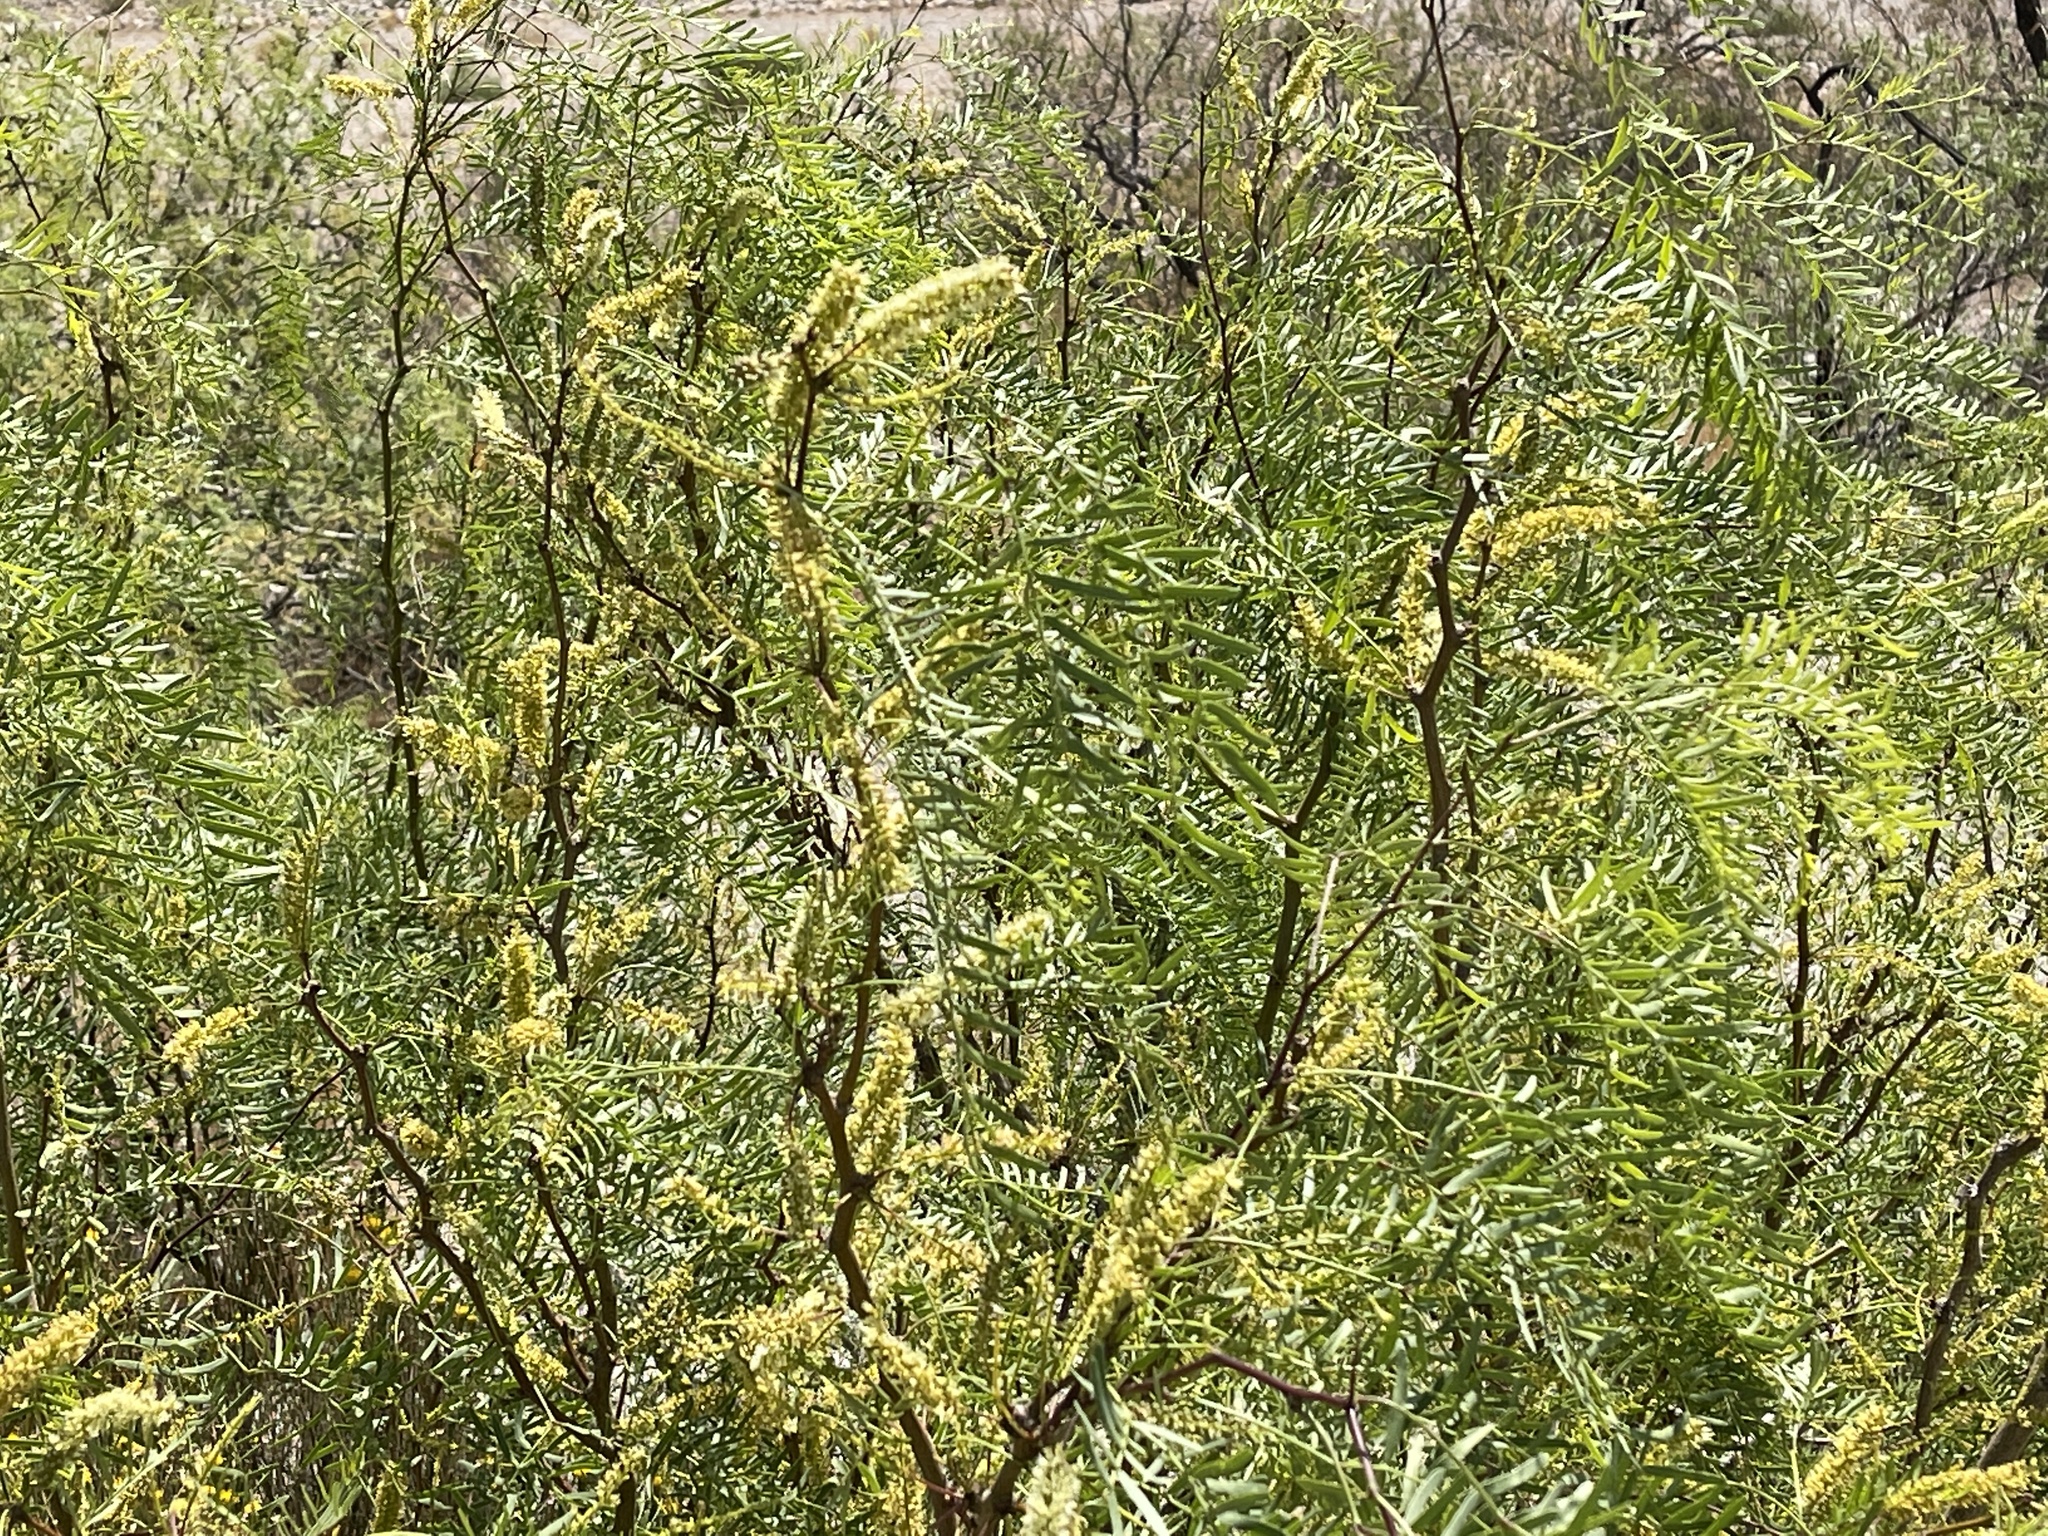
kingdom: Plantae
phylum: Tracheophyta
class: Magnoliopsida
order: Fabales
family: Fabaceae
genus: Prosopis
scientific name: Prosopis glandulosa
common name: Honey mesquite
